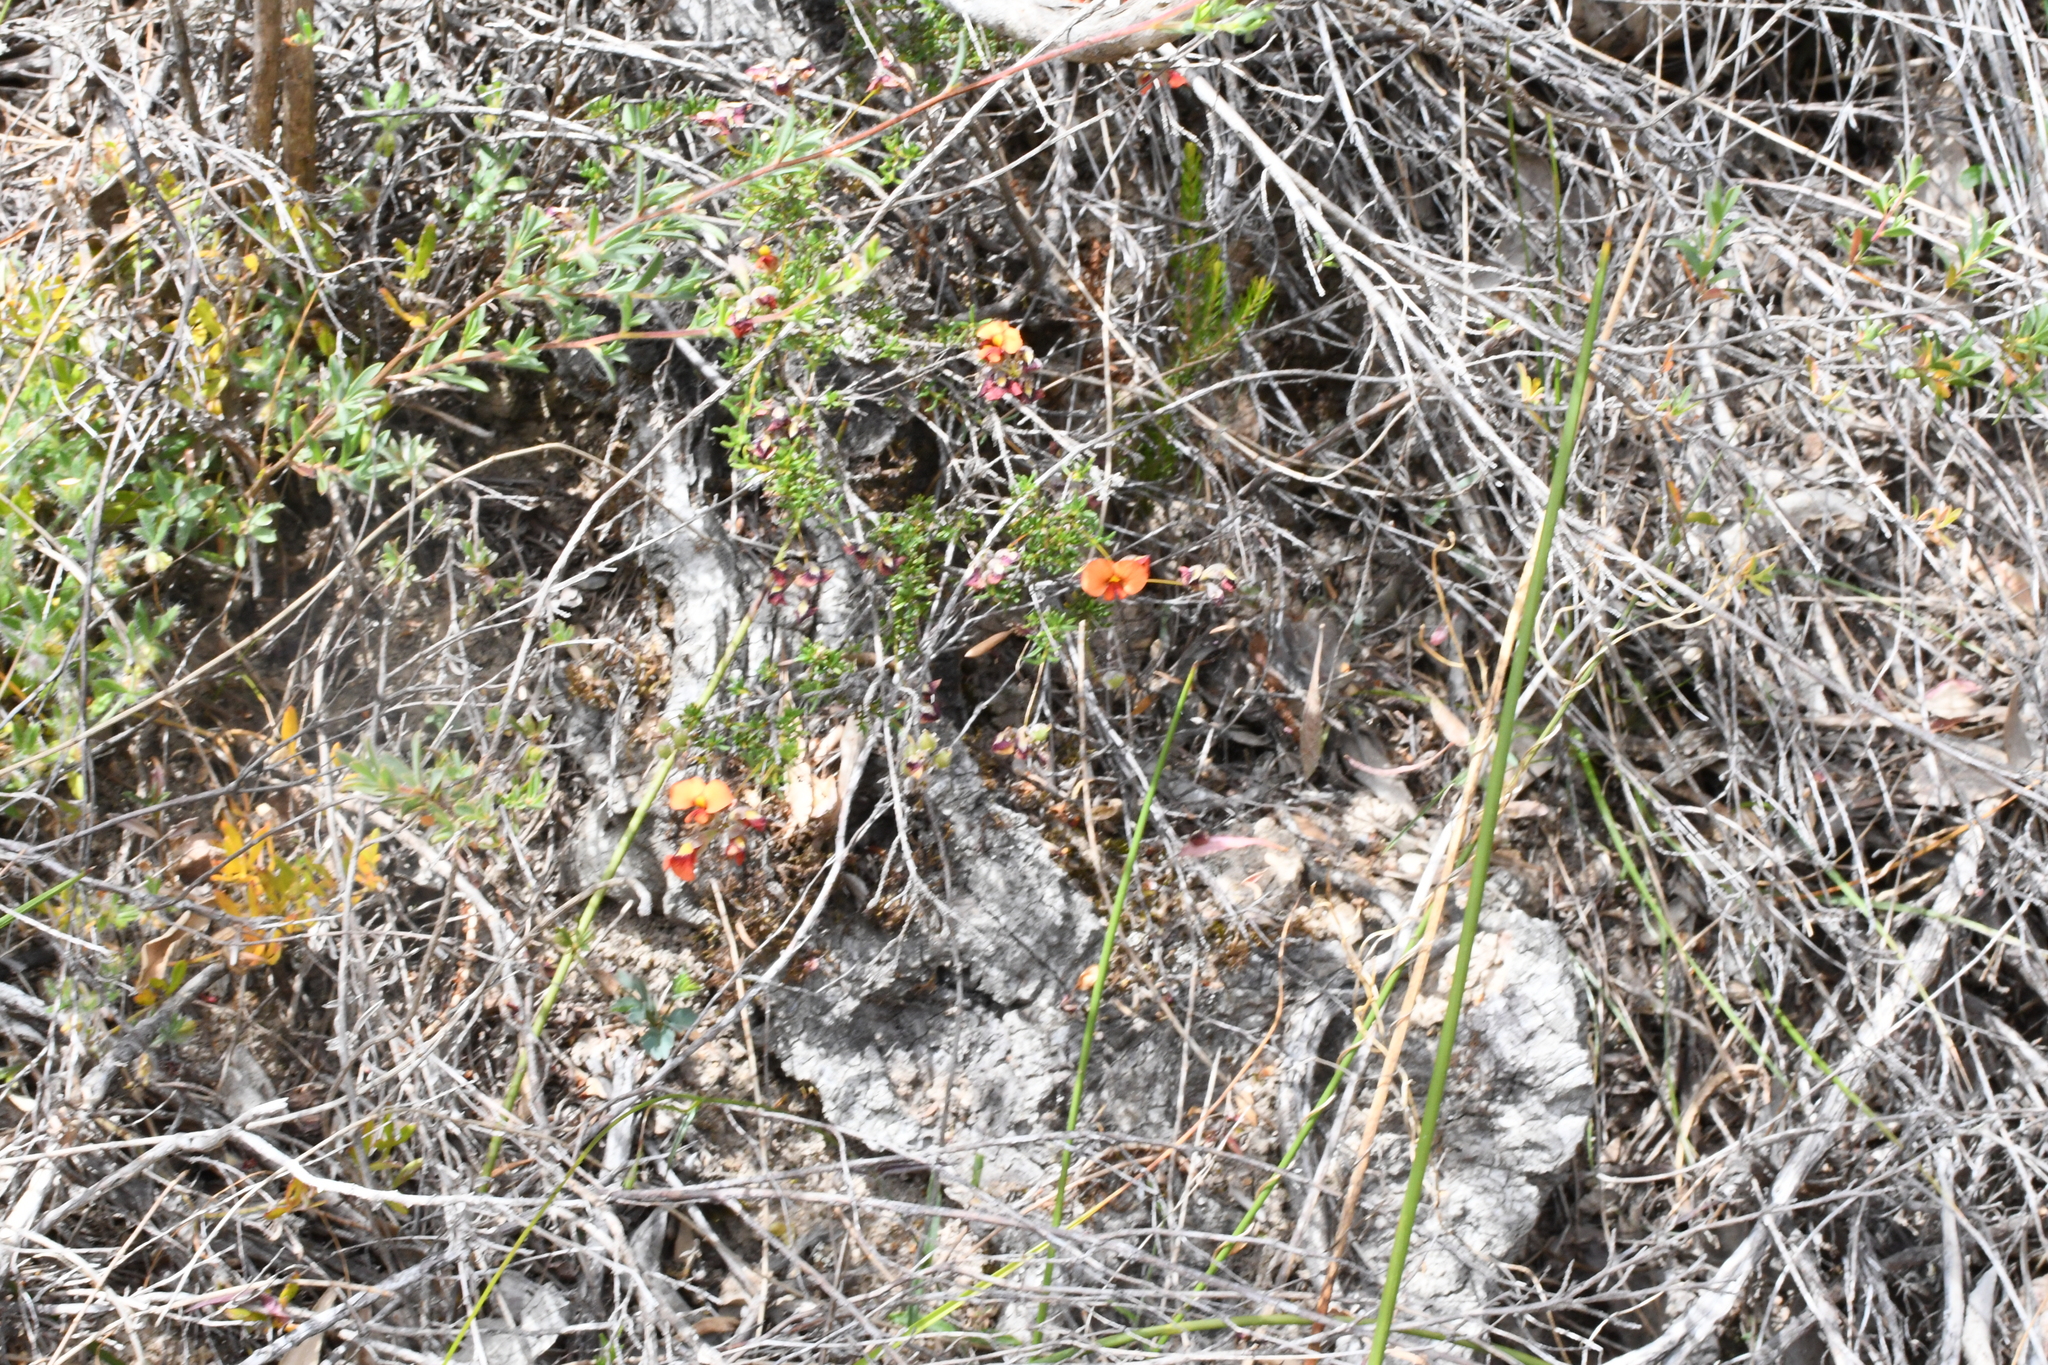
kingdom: Plantae
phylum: Tracheophyta
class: Magnoliopsida
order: Fabales
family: Fabaceae
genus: Dillwynia
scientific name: Dillwynia hispida
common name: Red parrot-pea
